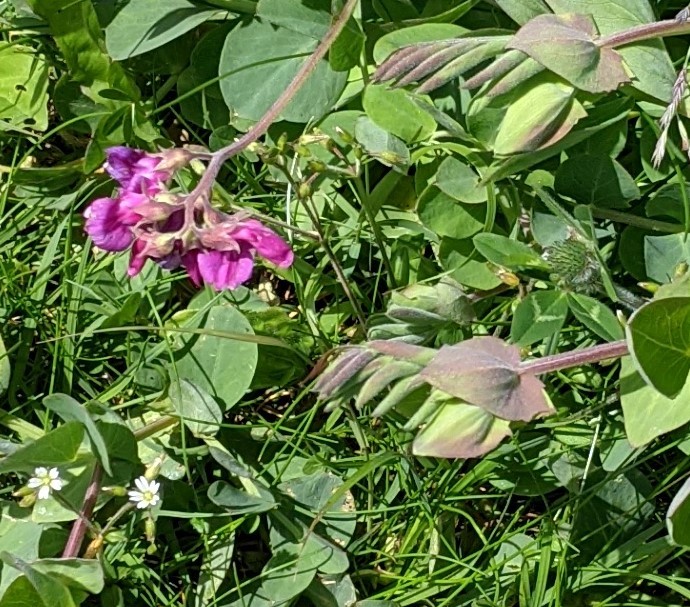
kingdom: Plantae
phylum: Tracheophyta
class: Magnoliopsida
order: Fabales
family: Fabaceae
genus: Lathyrus
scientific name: Lathyrus japonicus
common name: Sea pea
